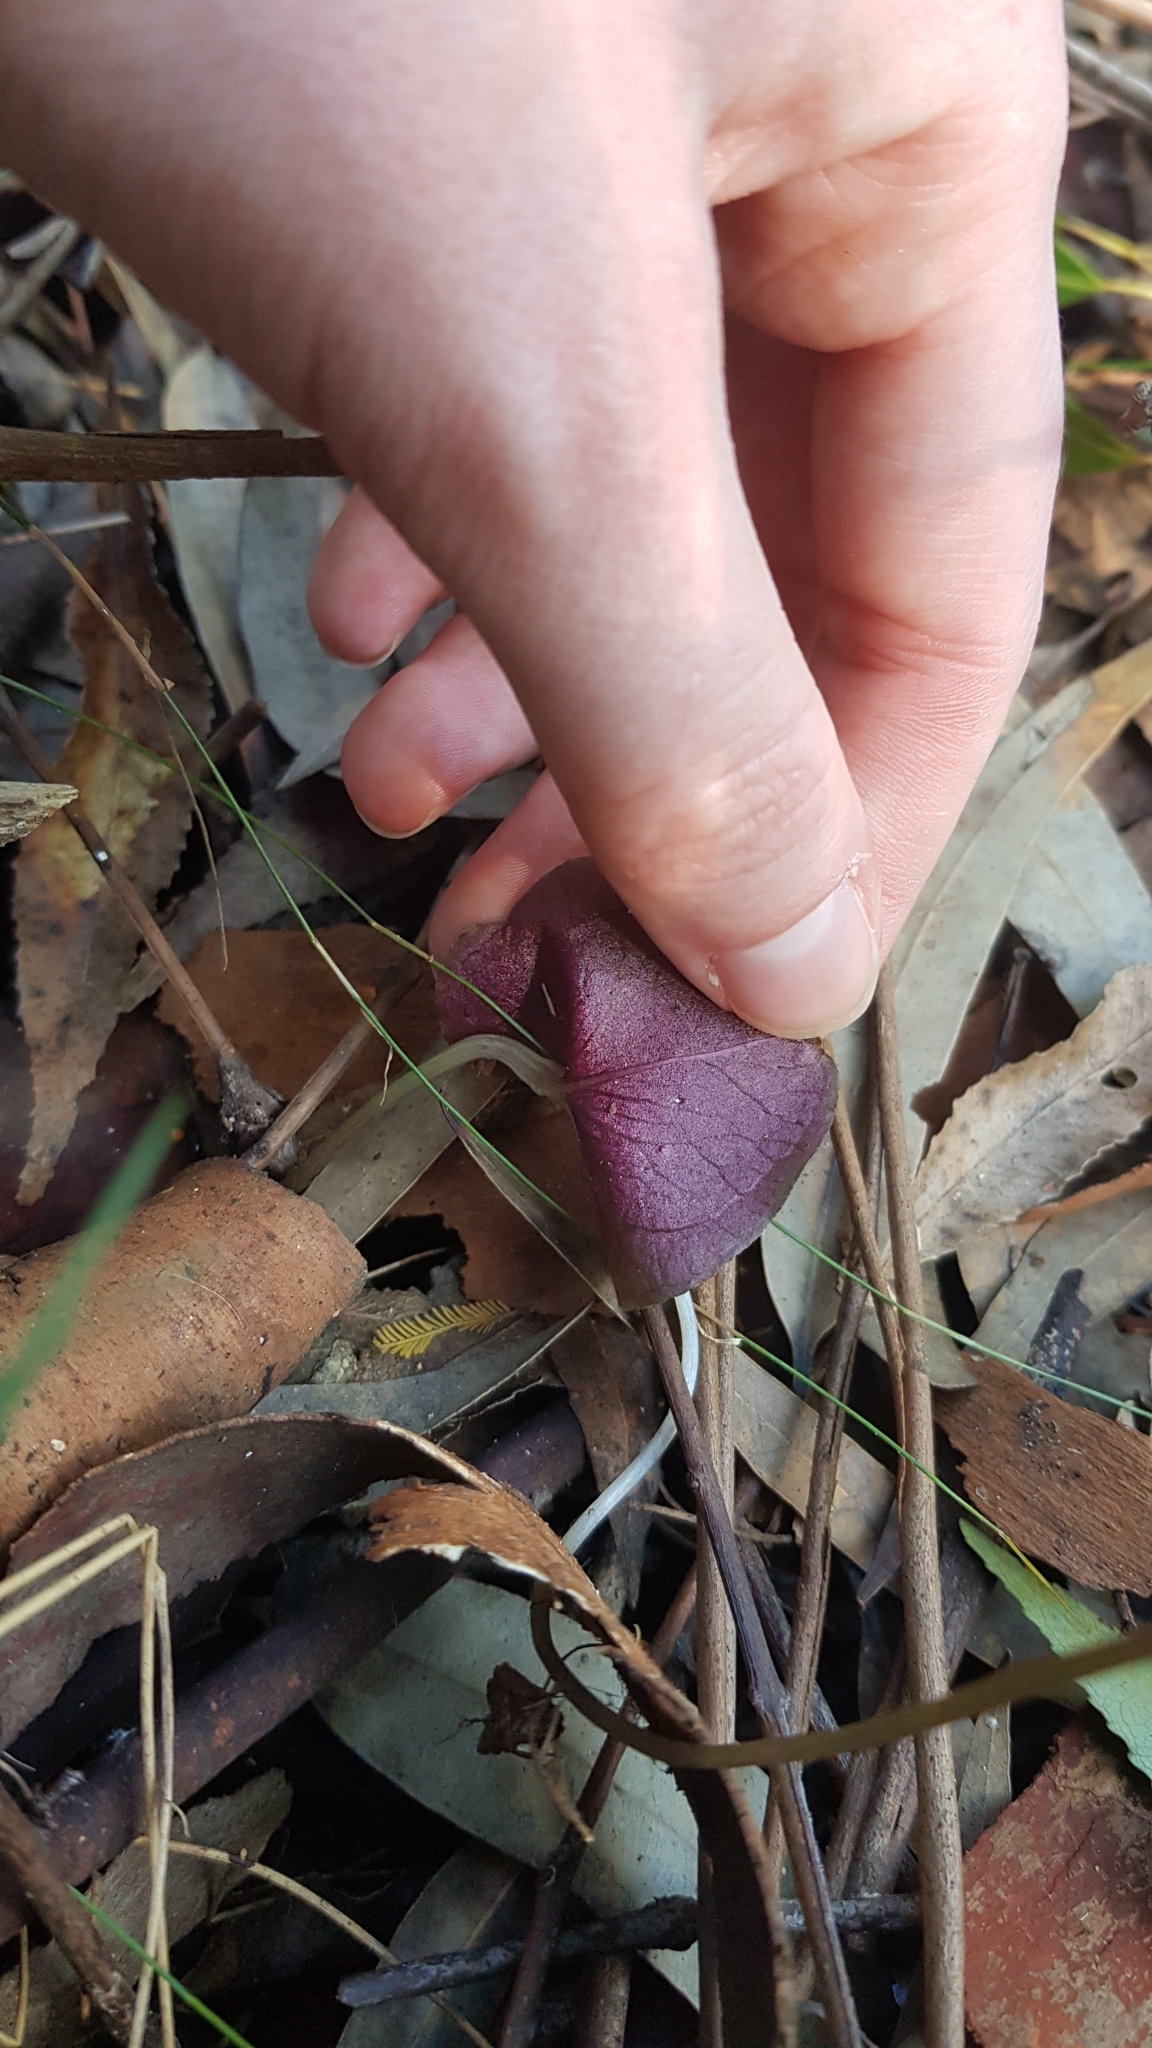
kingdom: Plantae
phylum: Tracheophyta
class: Liliopsida
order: Asparagales
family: Orchidaceae
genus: Acianthus
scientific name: Acianthus caudatus
